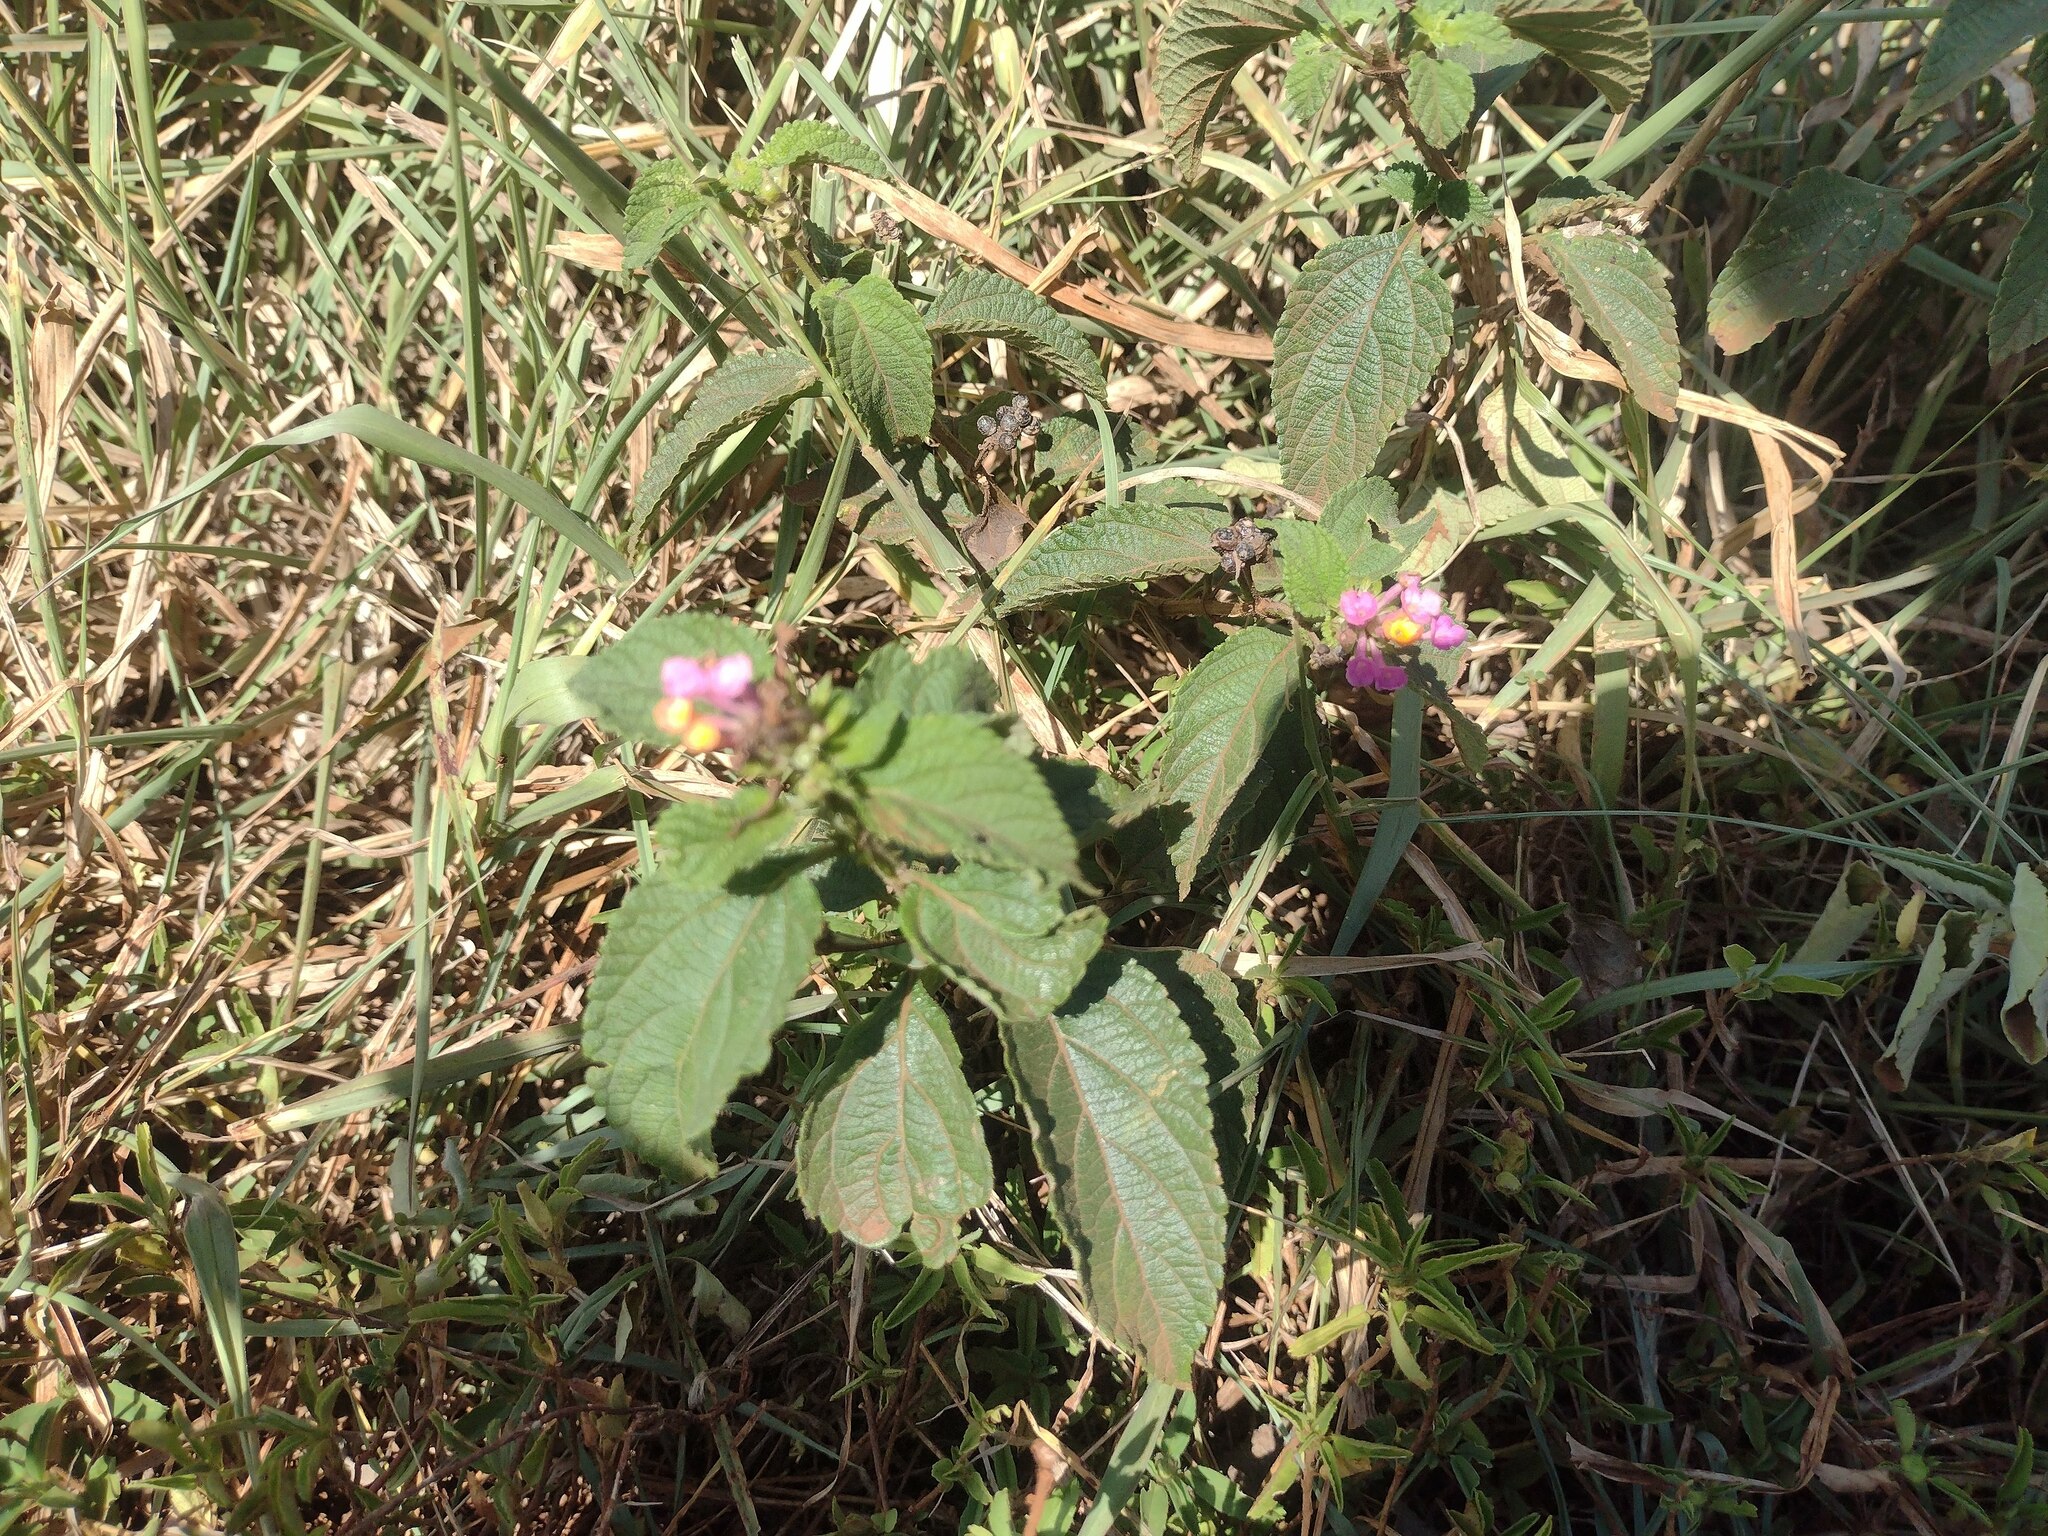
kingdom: Plantae
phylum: Tracheophyta
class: Magnoliopsida
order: Lamiales
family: Verbenaceae
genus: Lantana
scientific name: Lantana camara
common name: Lantana
